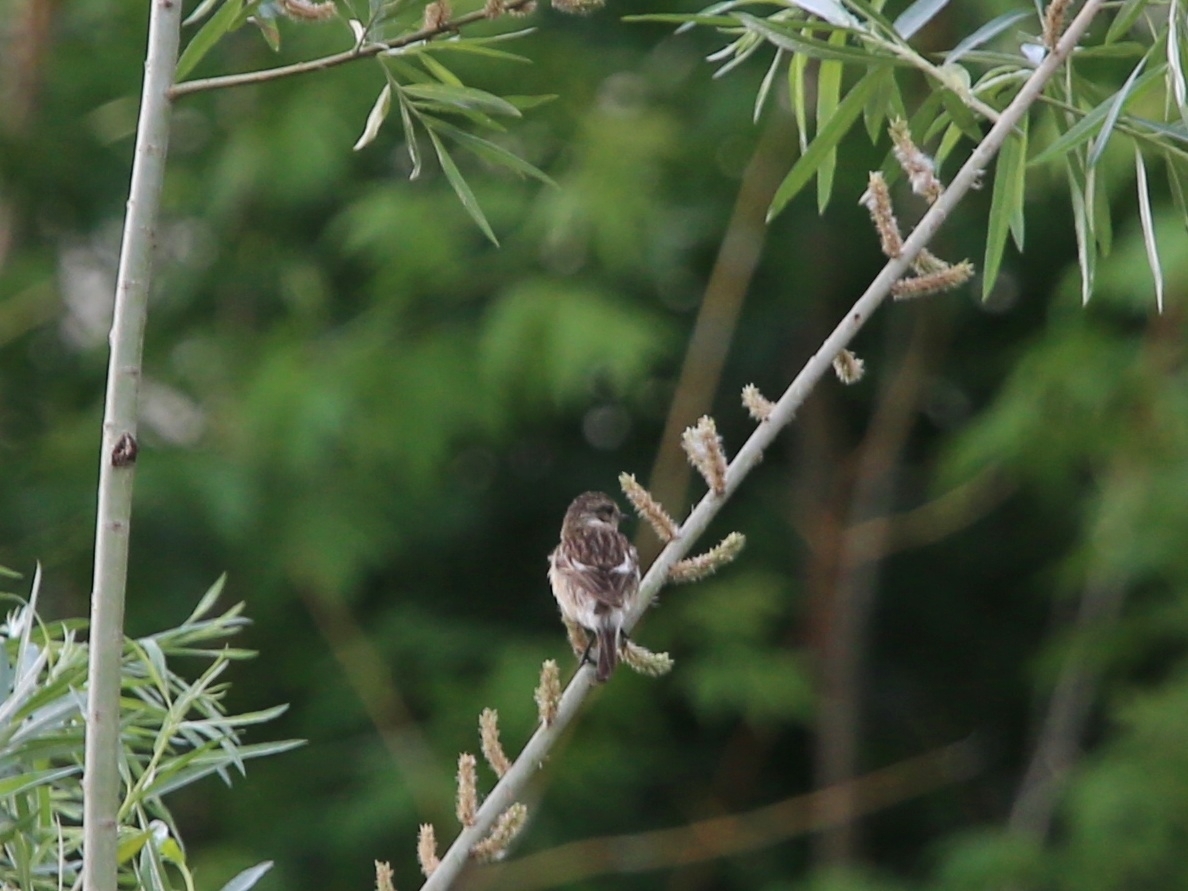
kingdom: Animalia
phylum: Chordata
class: Aves
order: Passeriformes
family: Muscicapidae
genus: Saxicola
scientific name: Saxicola maurus
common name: Siberian stonechat
